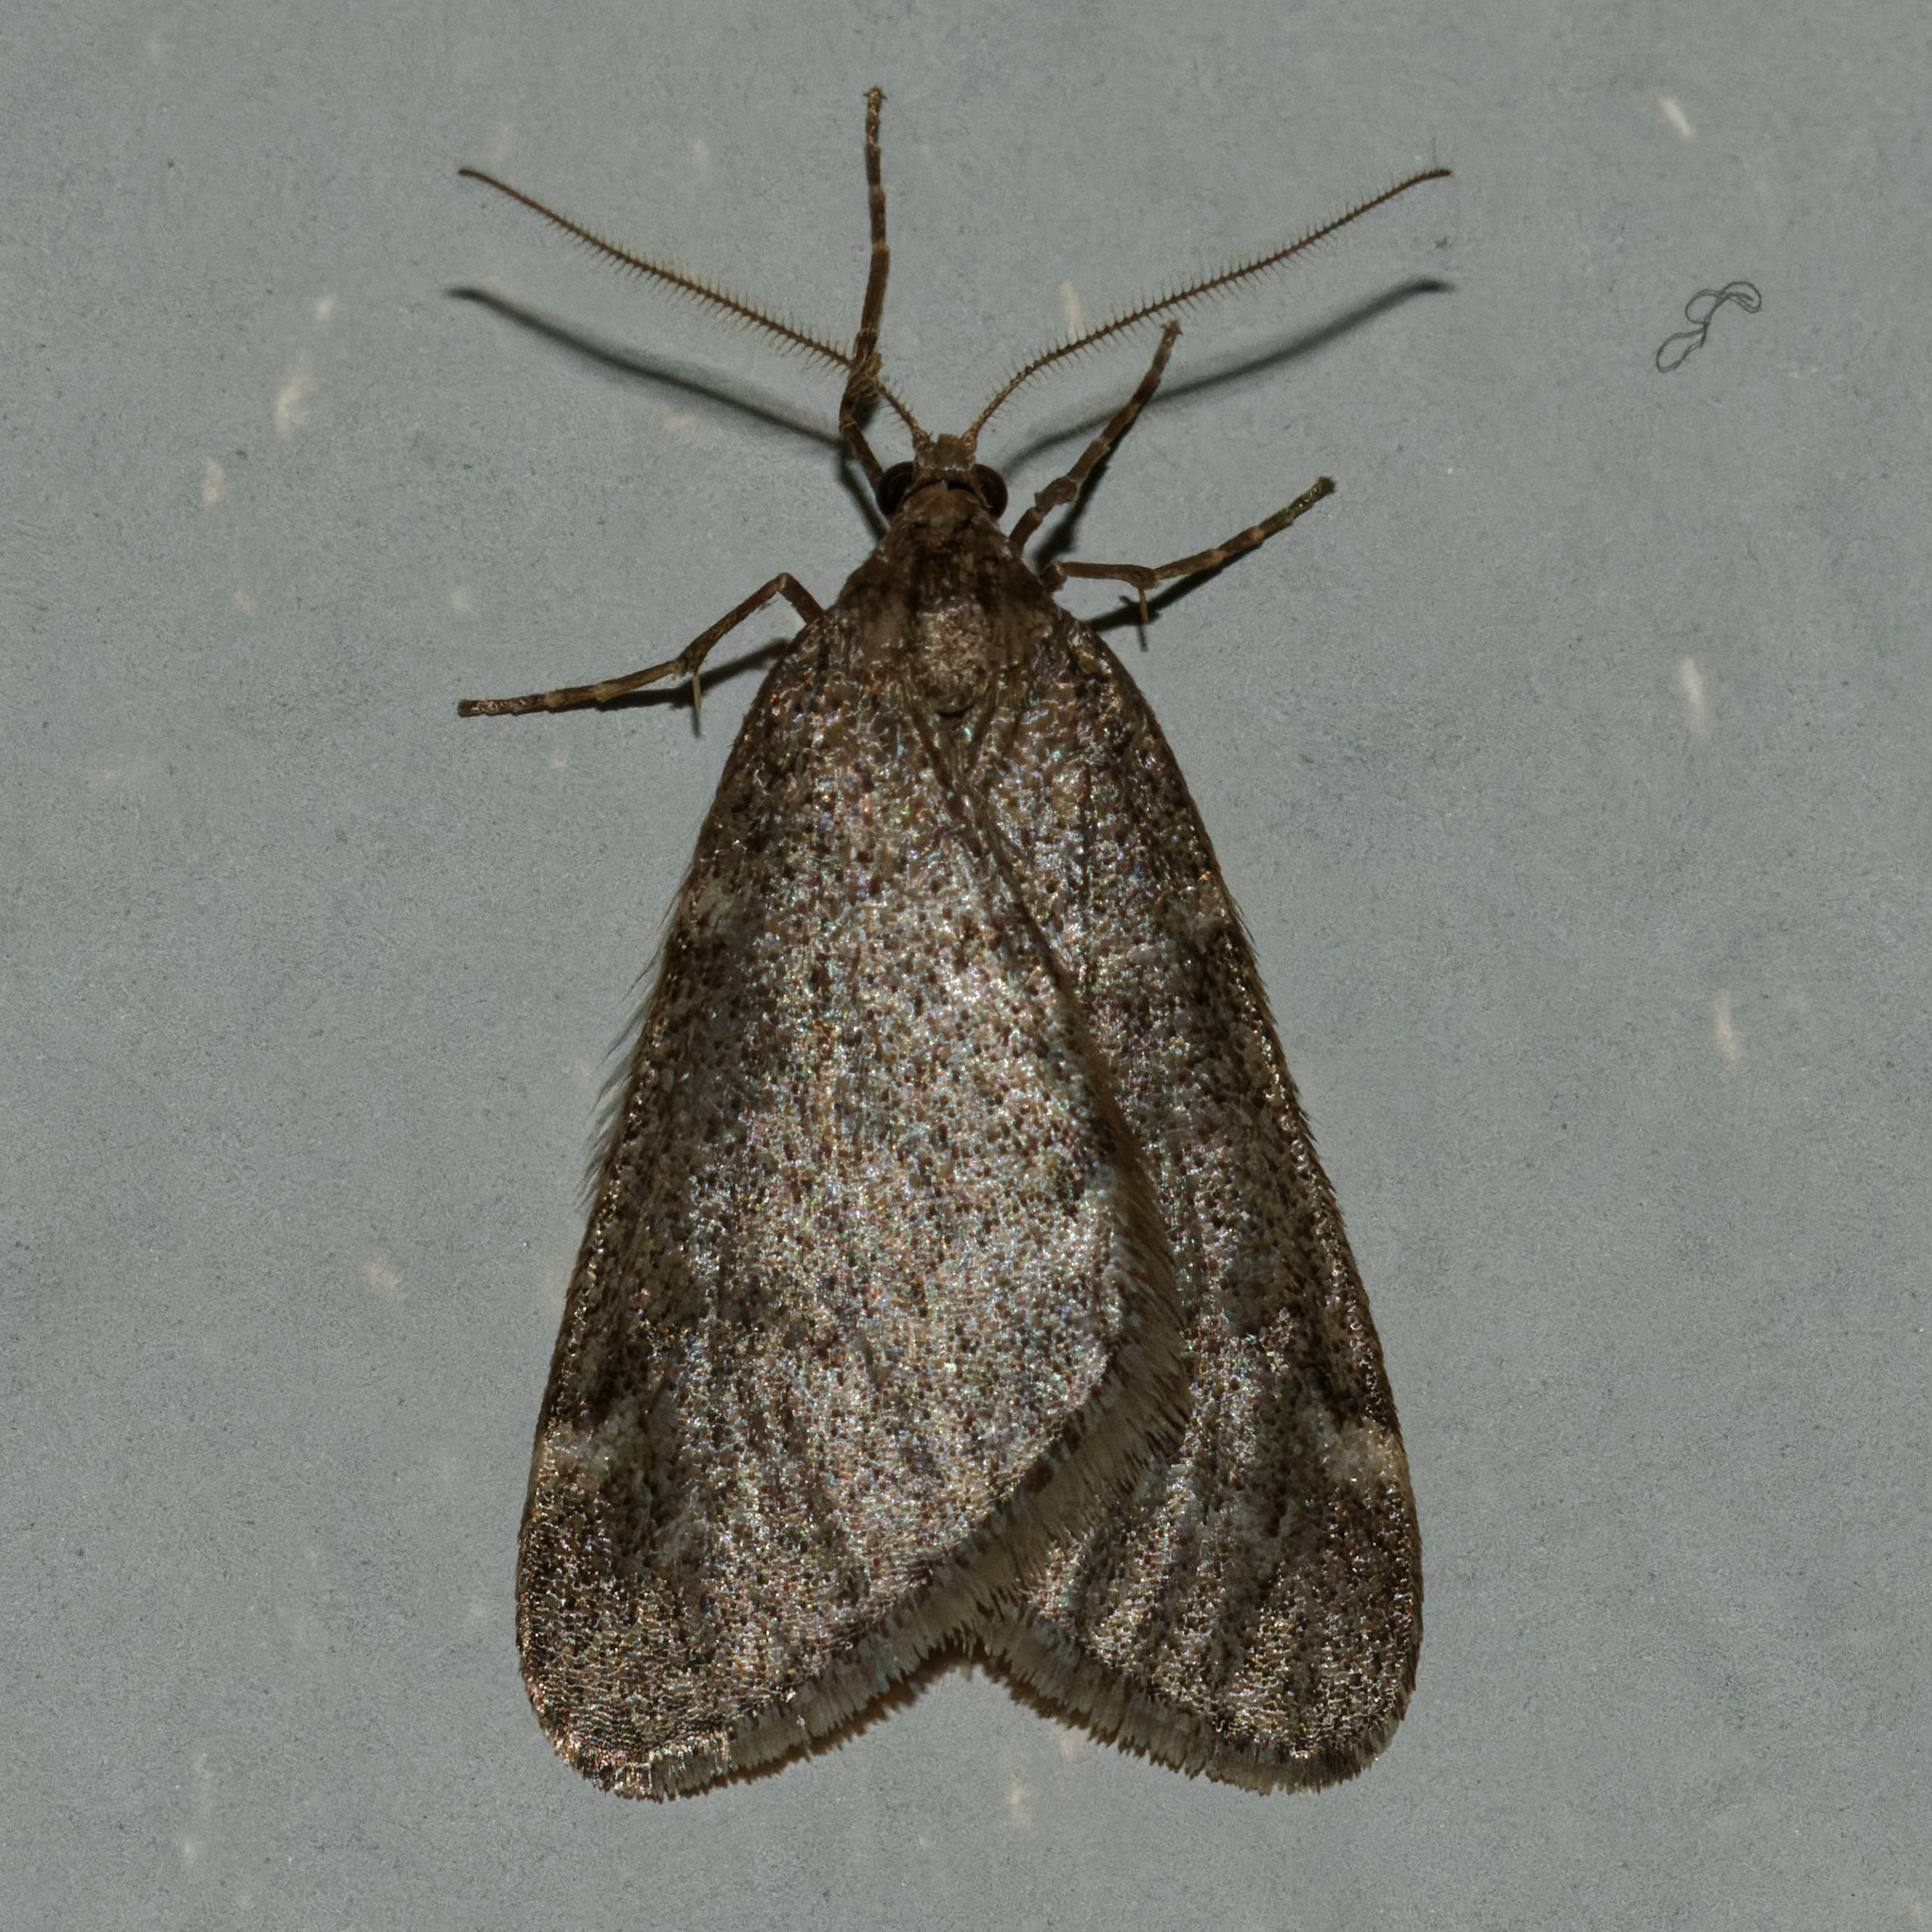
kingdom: Animalia
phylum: Arthropoda
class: Insecta
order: Lepidoptera
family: Geometridae
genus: Paleacrita
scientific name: Paleacrita vernata
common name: Spring cankerworm
